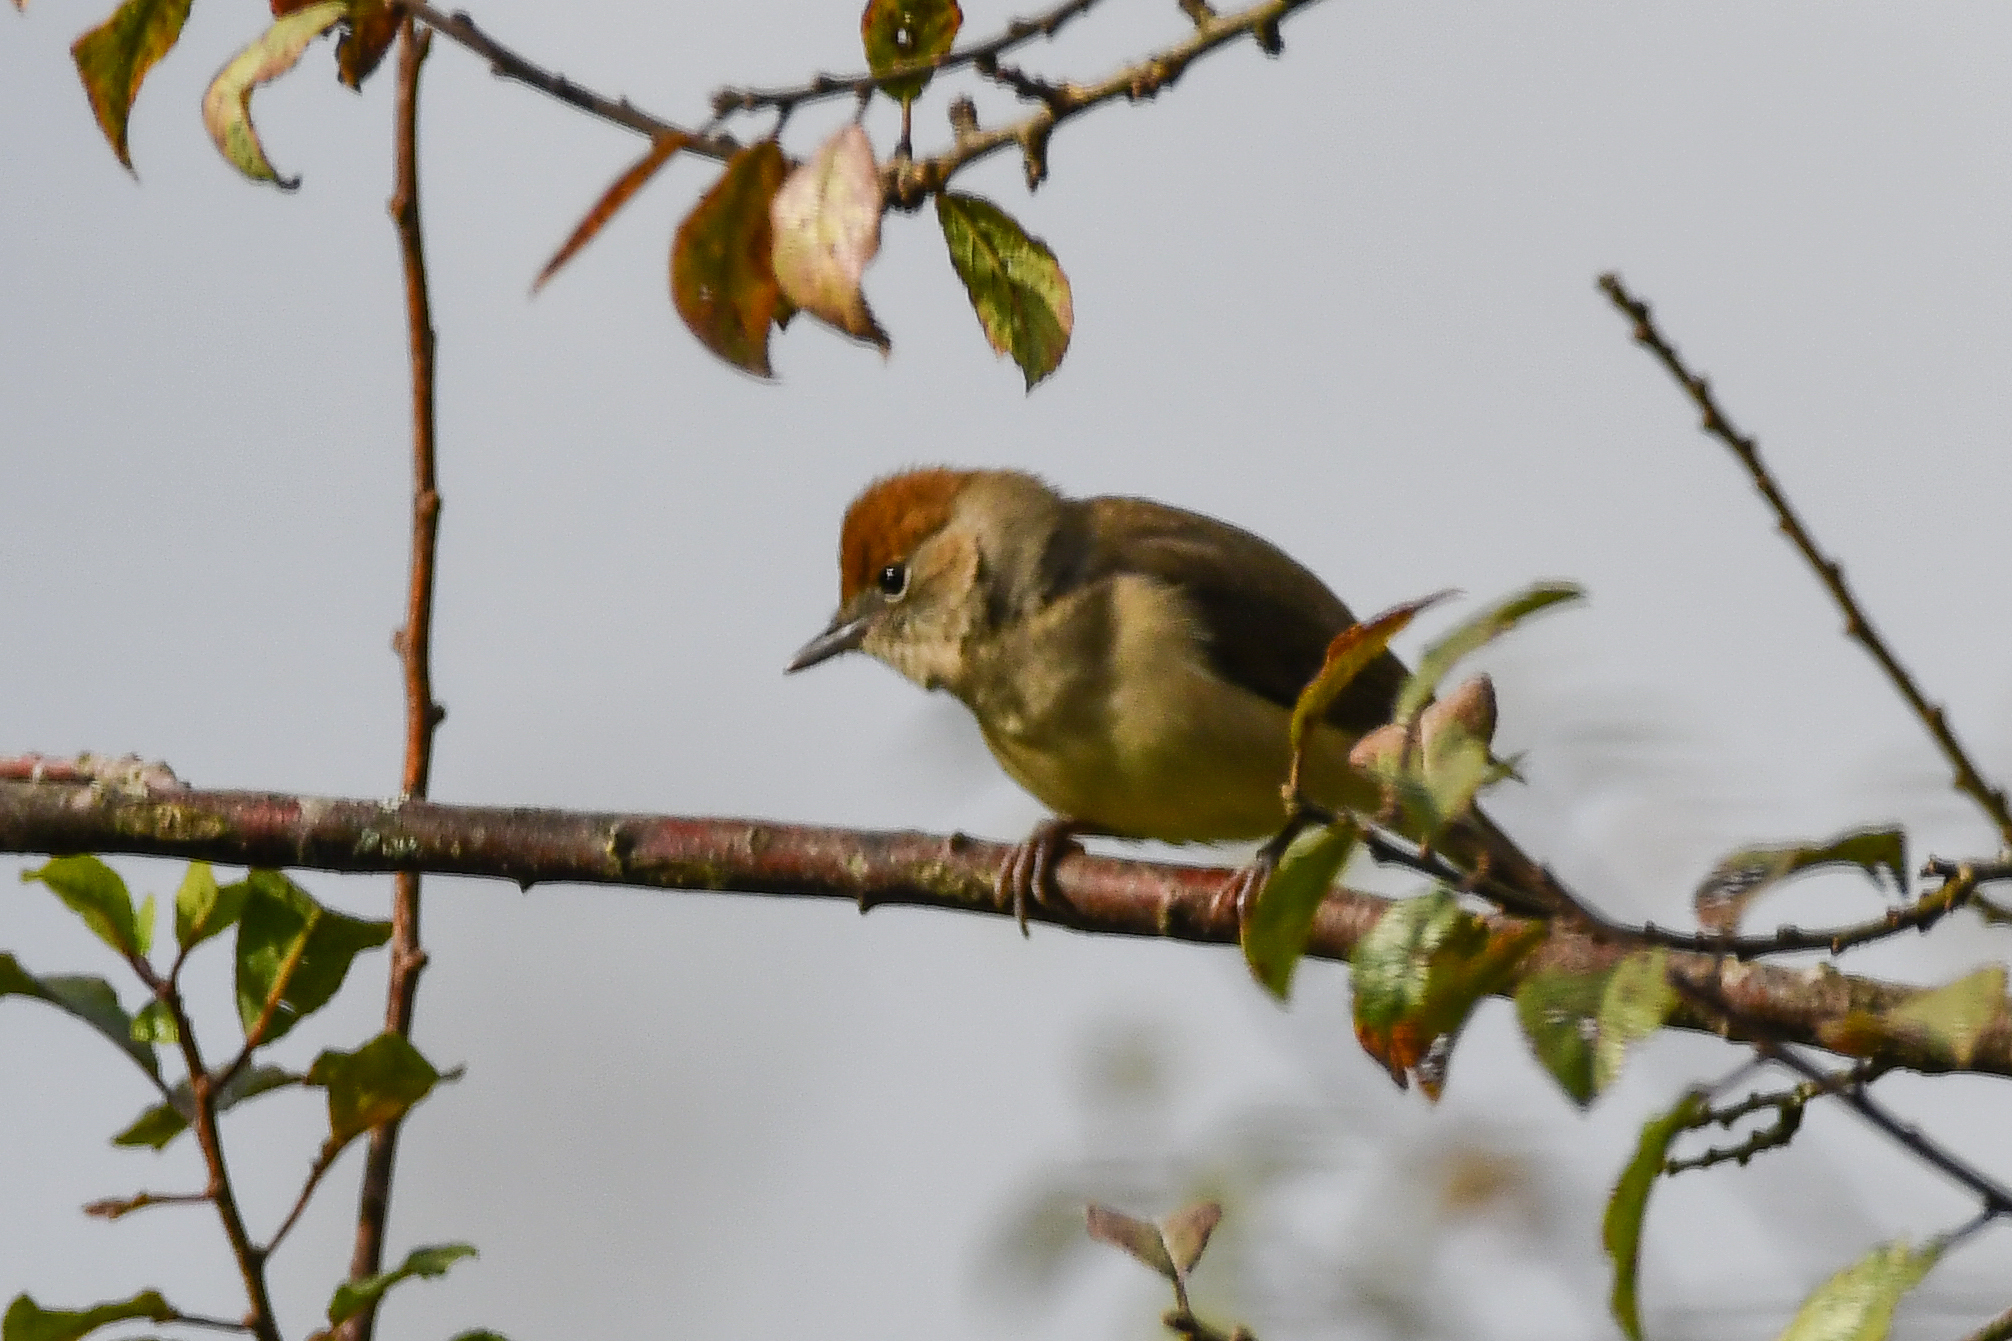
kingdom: Animalia
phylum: Chordata
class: Aves
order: Passeriformes
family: Sylviidae
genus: Sylvia
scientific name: Sylvia atricapilla
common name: Eurasian blackcap
